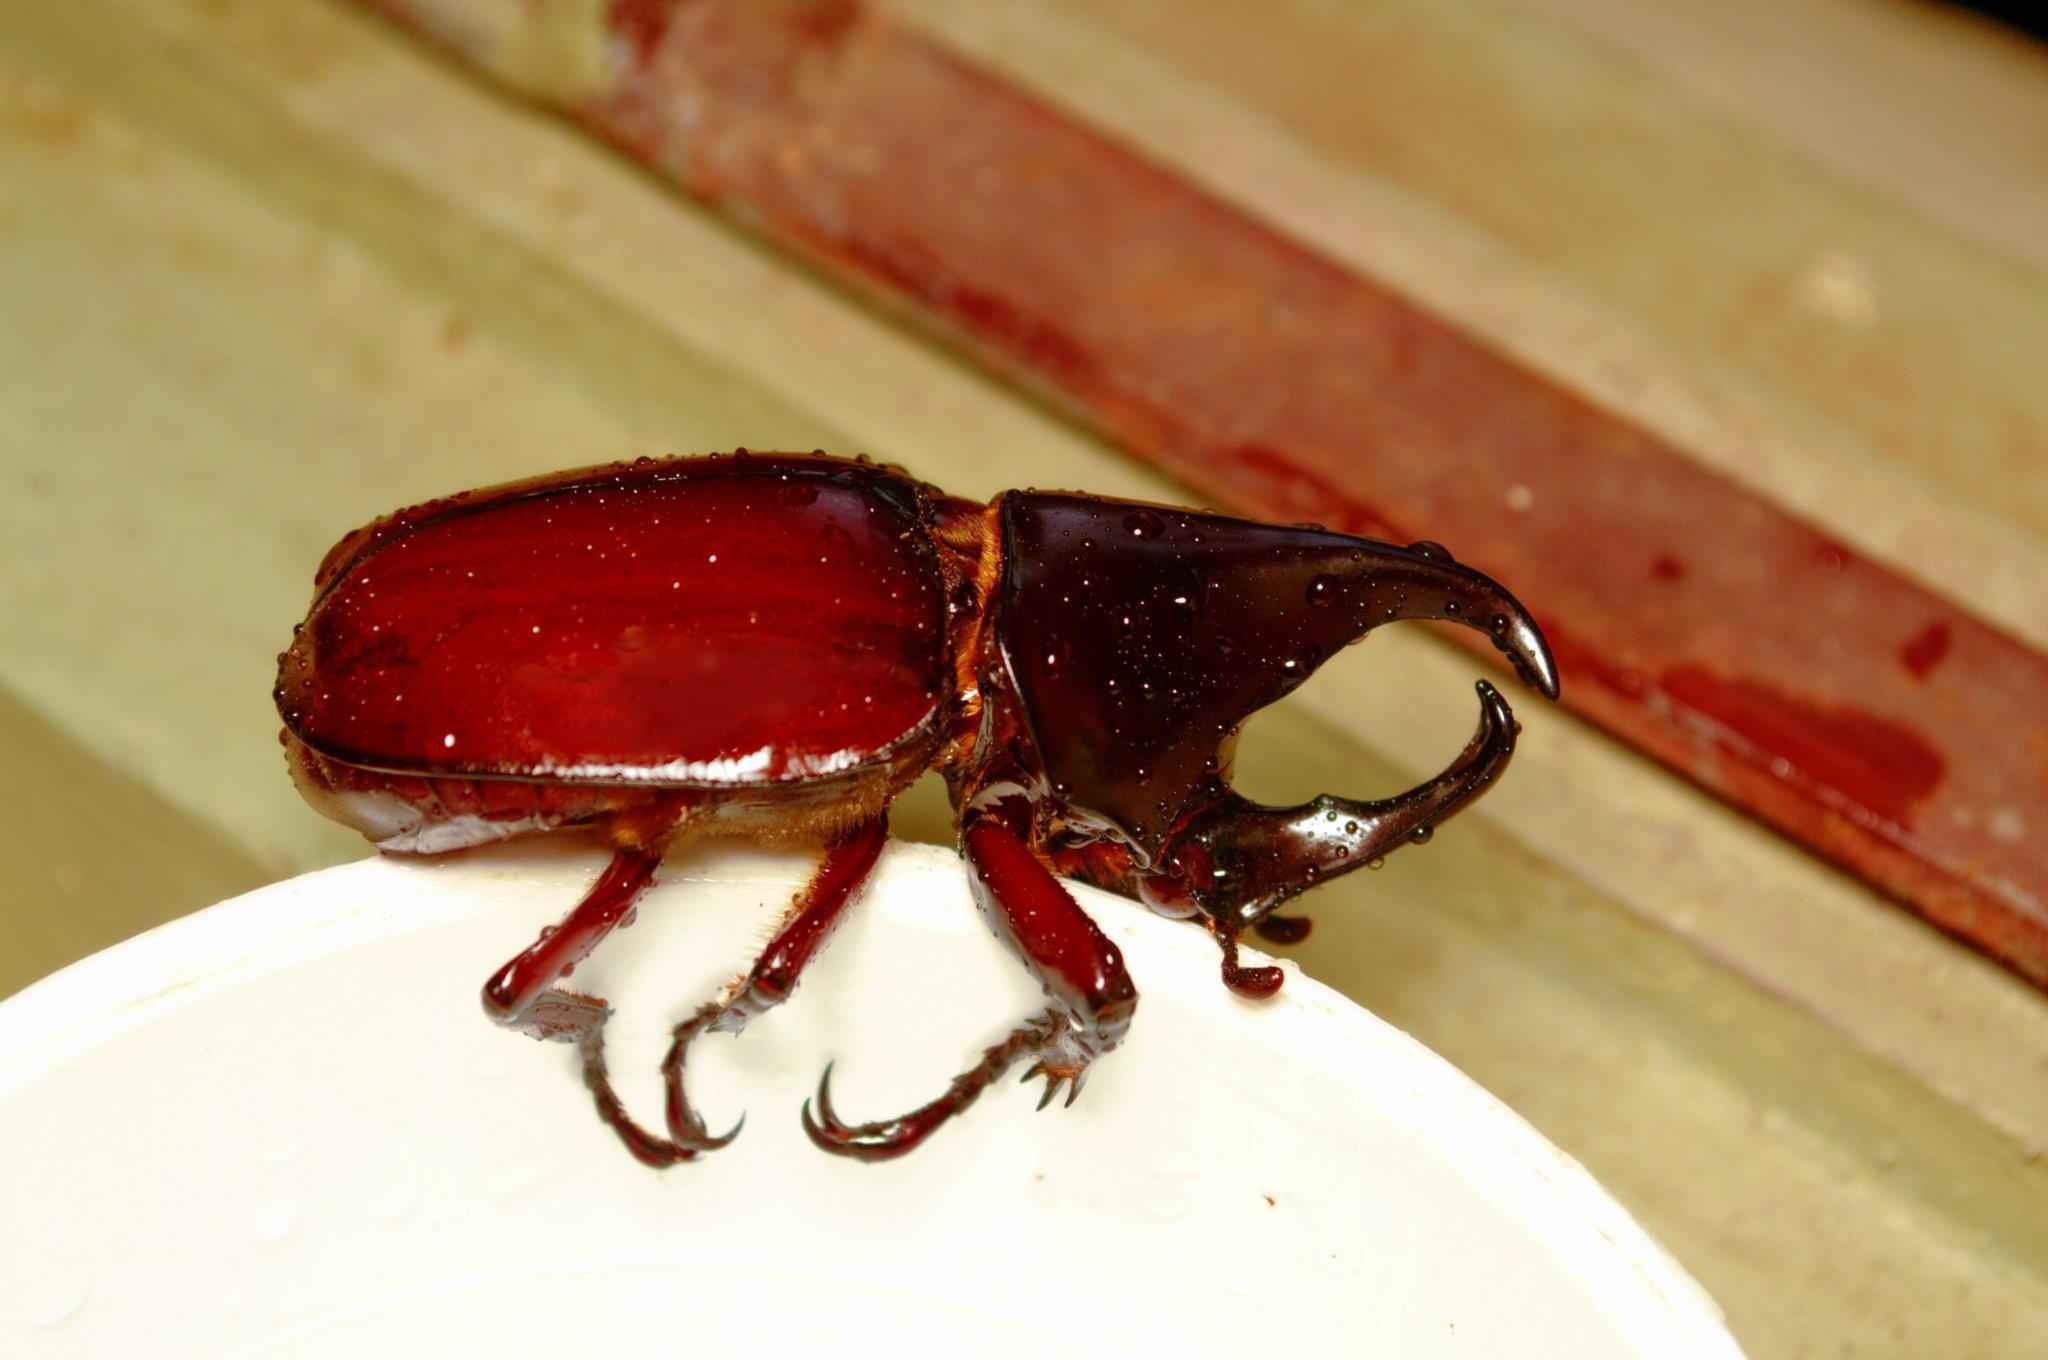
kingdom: Animalia
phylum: Arthropoda
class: Insecta
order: Coleoptera
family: Scarabaeidae
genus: Xylotrupes
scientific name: Xylotrupes socrates
